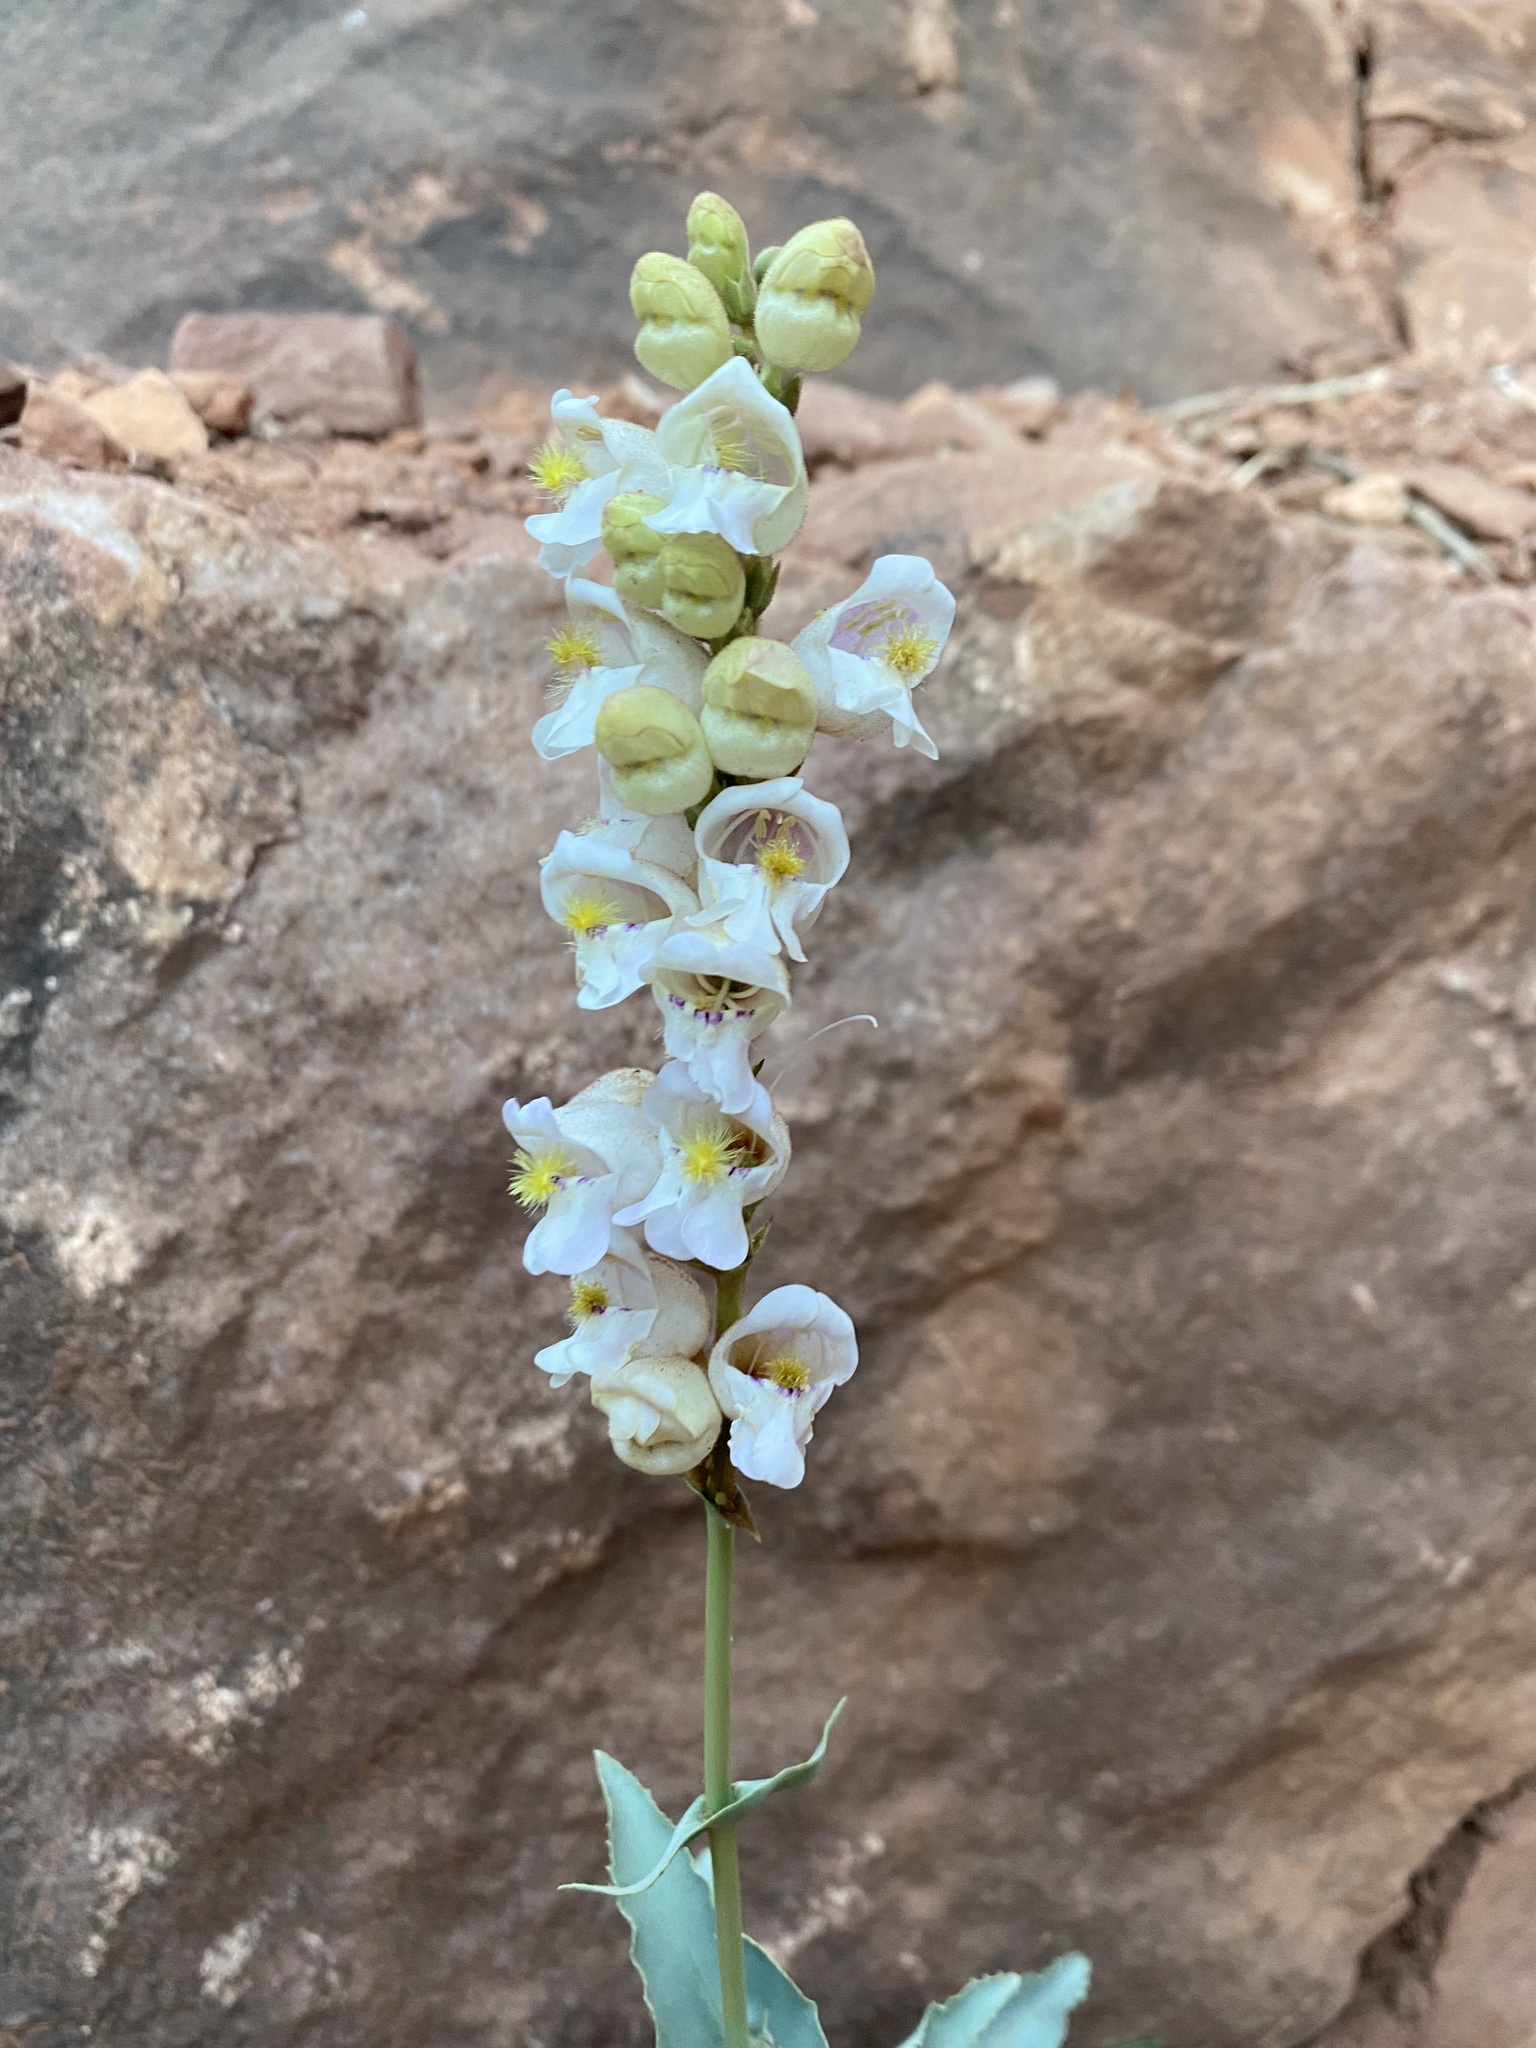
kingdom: Plantae
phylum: Tracheophyta
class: Magnoliopsida
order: Lamiales
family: Plantaginaceae
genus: Penstemon
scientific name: Penstemon palmeri
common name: Palmer penstemon
